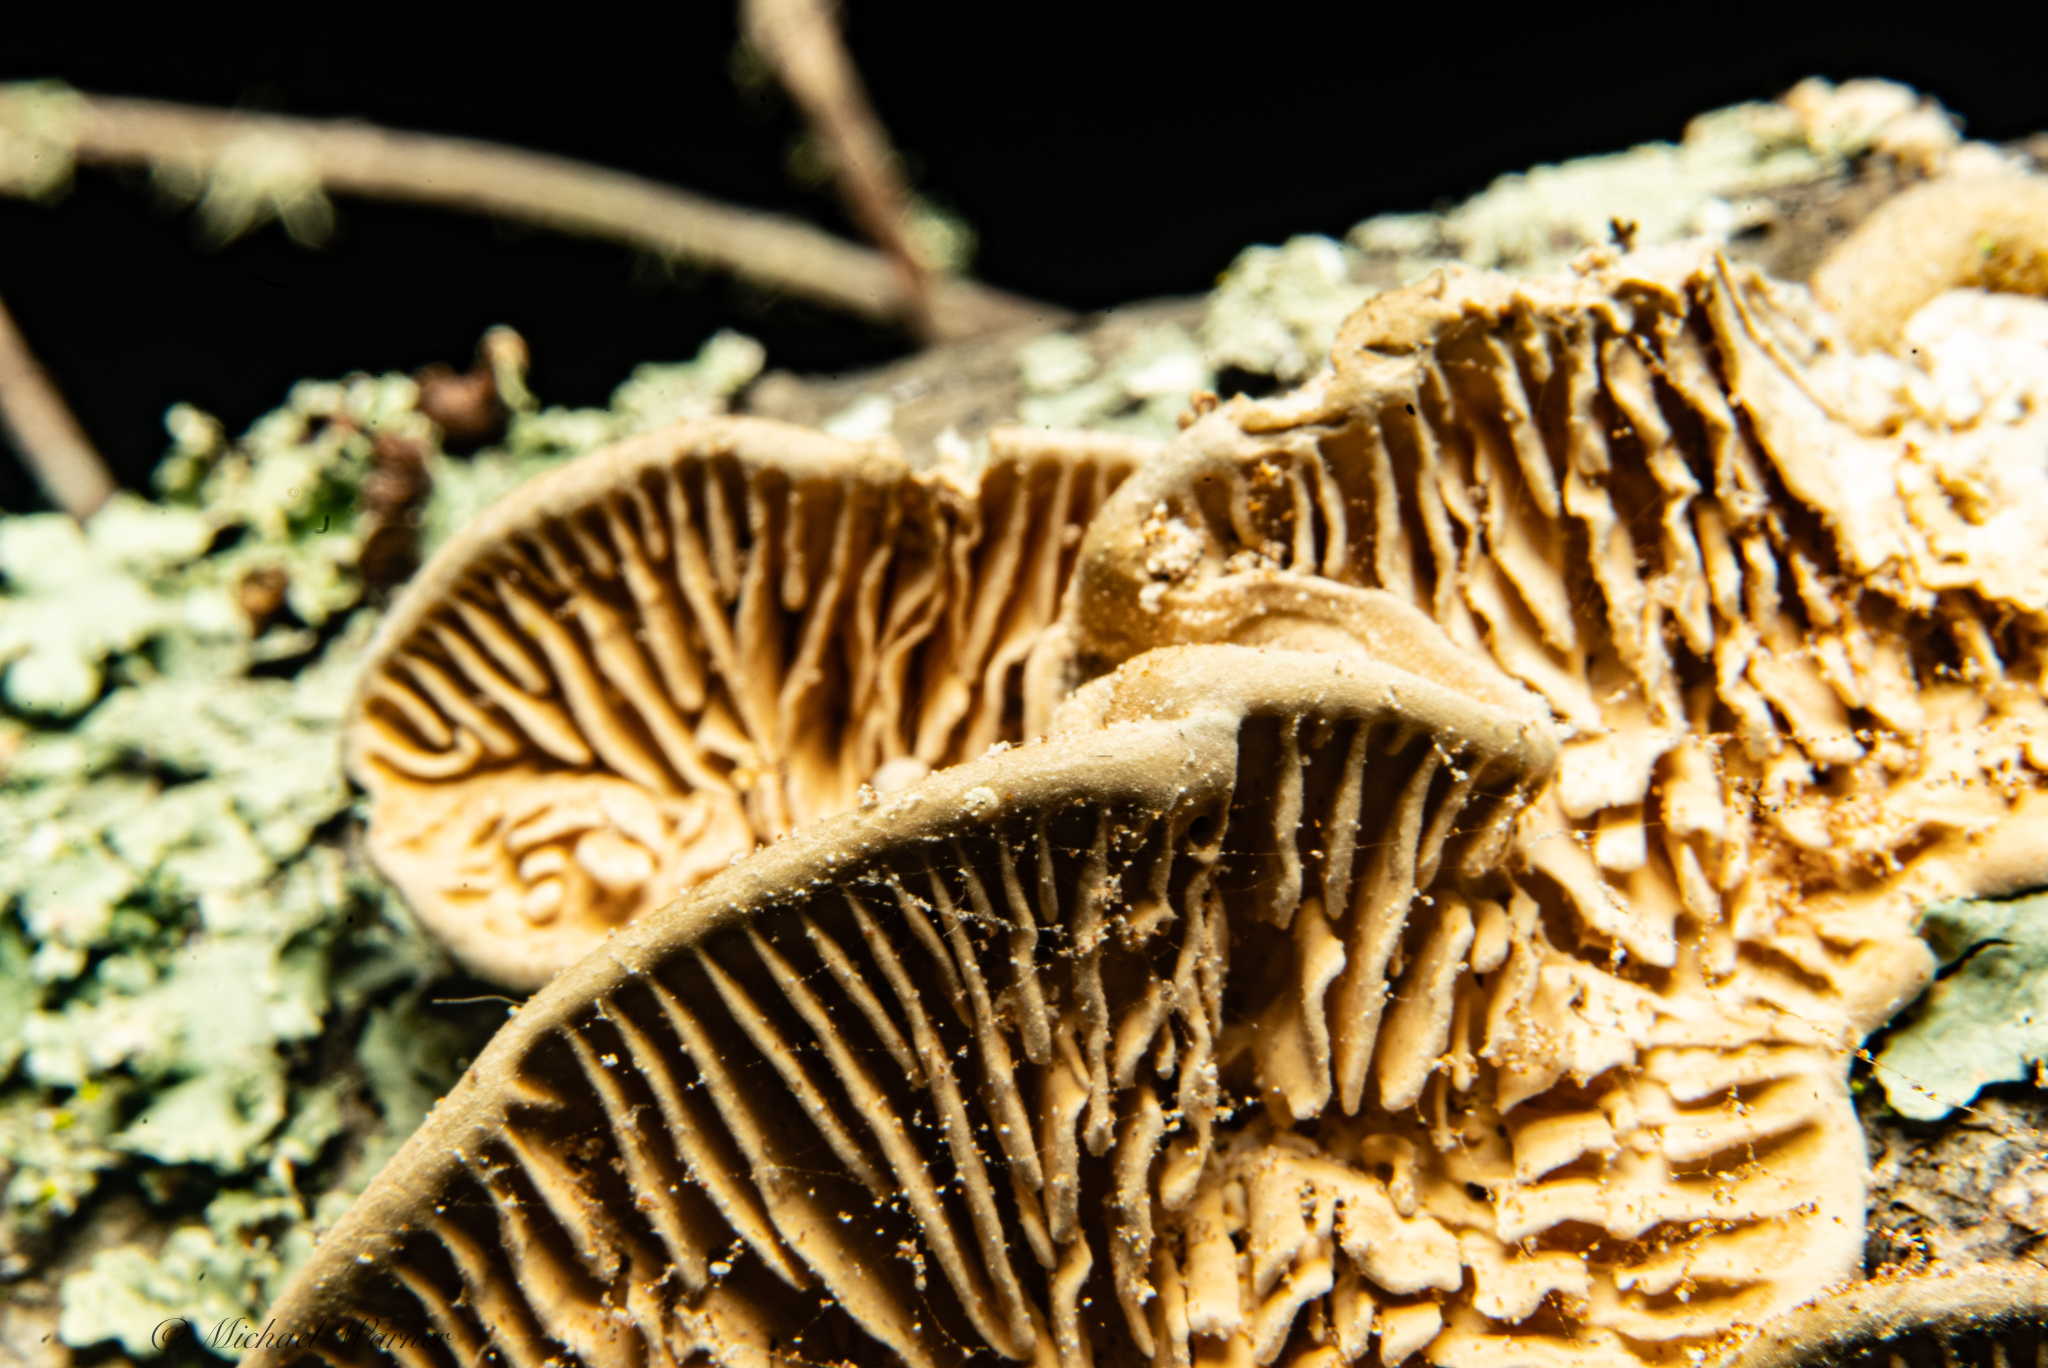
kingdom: Fungi
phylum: Basidiomycota
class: Agaricomycetes
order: Polyporales
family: Polyporaceae
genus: Lenzites
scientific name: Lenzites betulinus
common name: Birch mazegill
